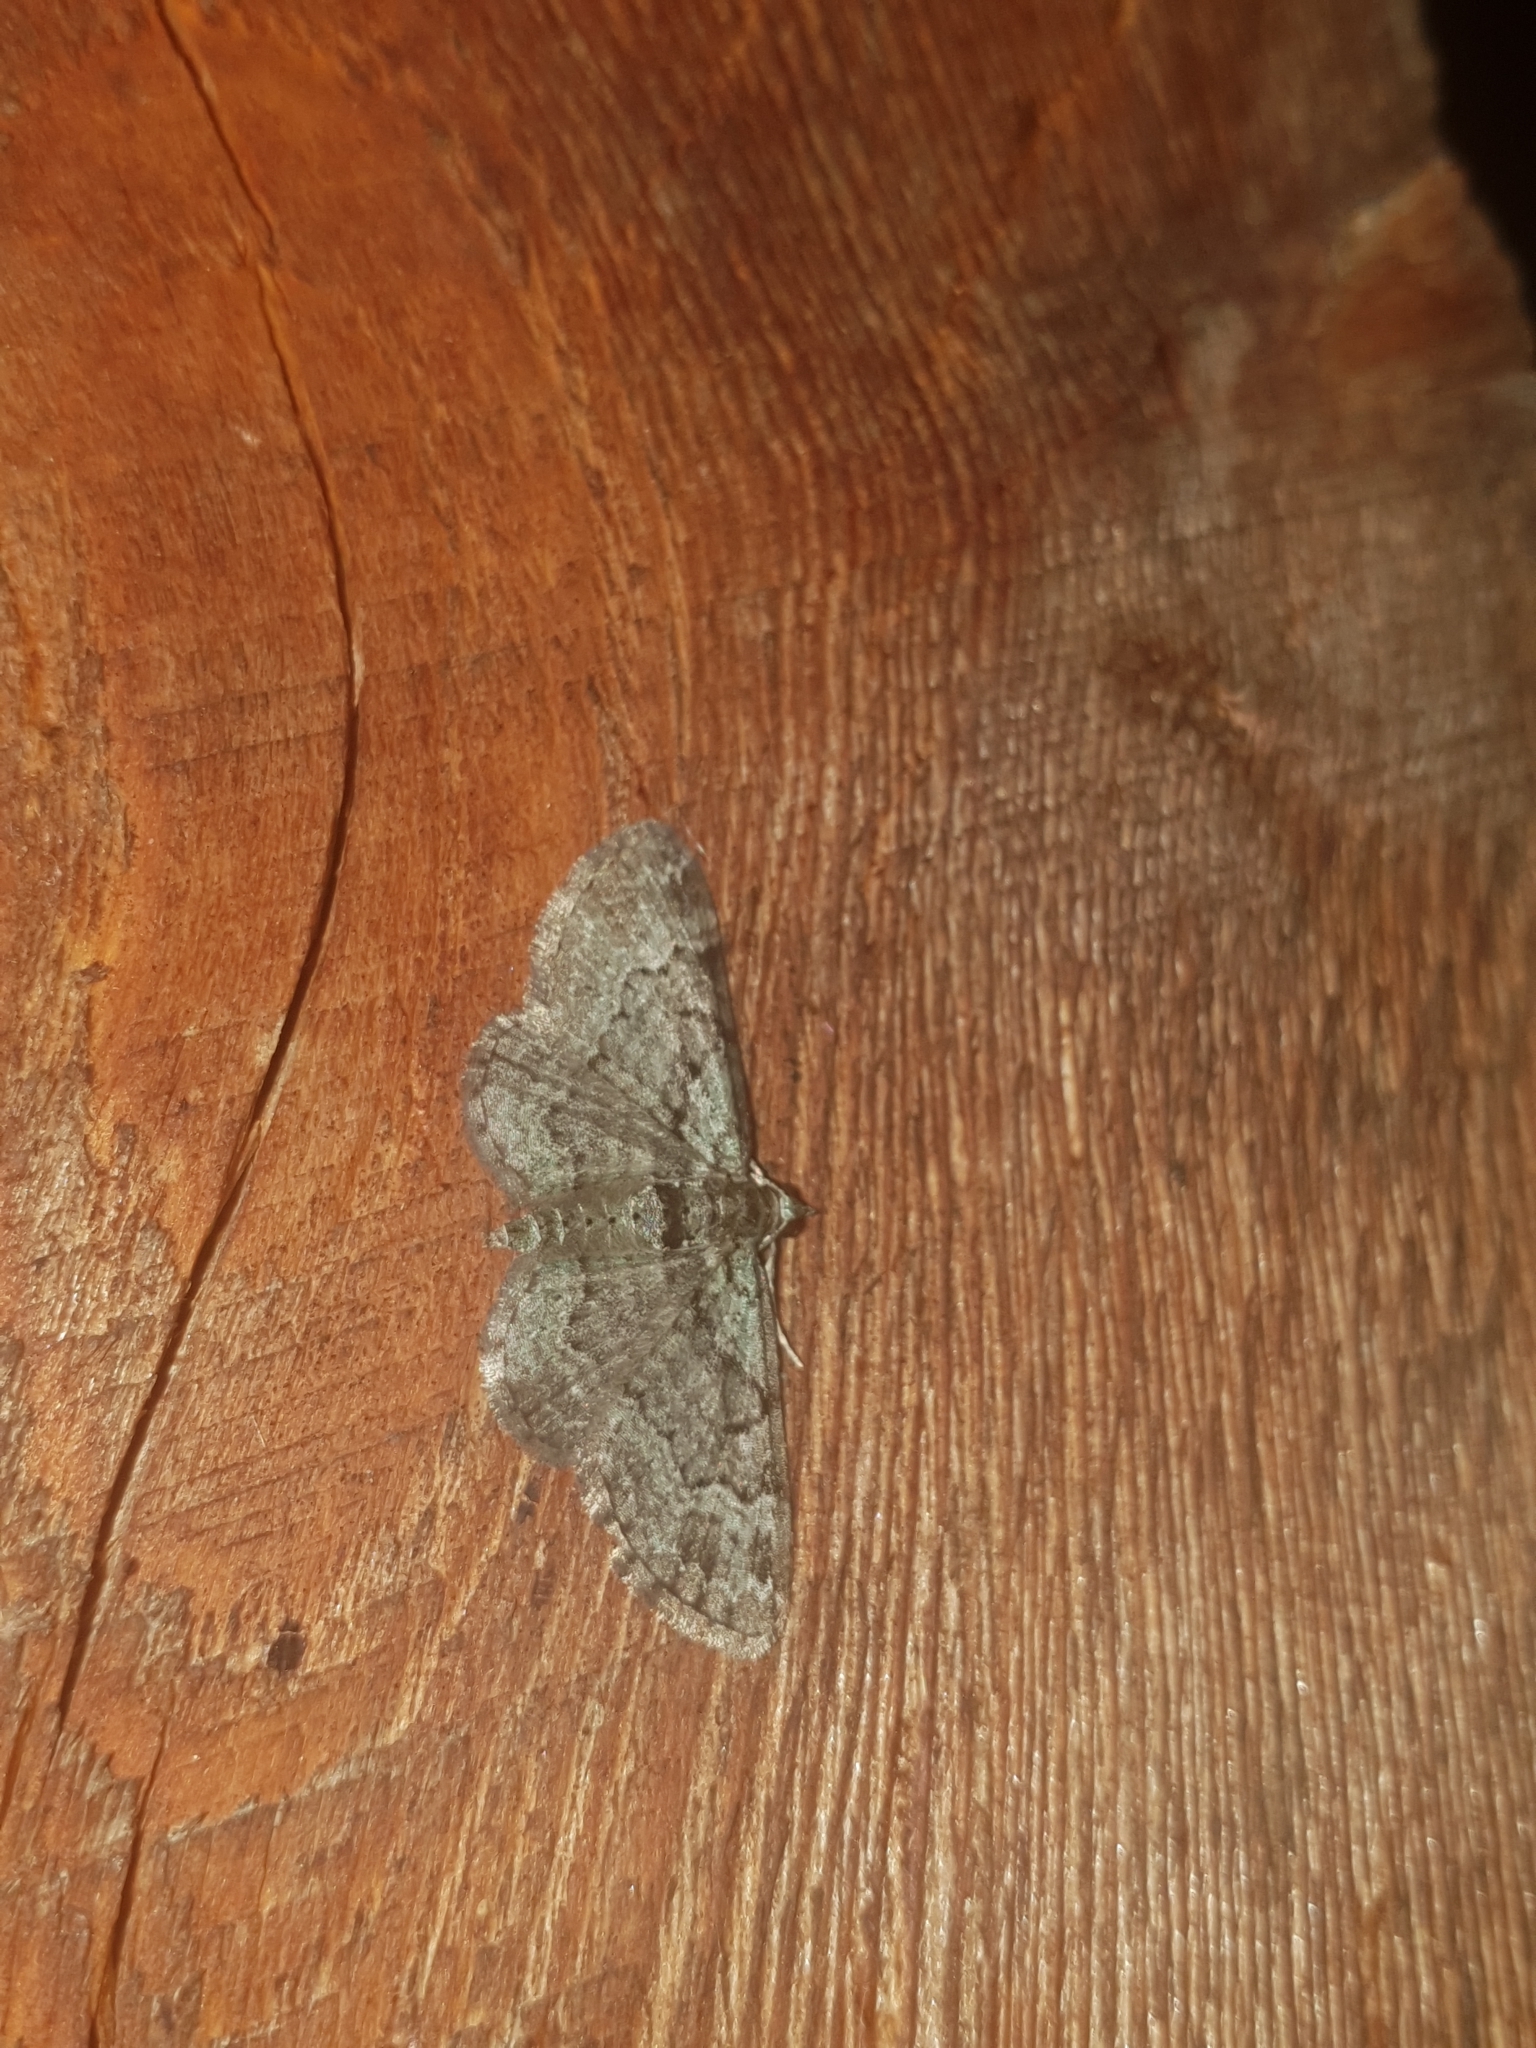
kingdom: Animalia
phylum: Arthropoda
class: Insecta
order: Lepidoptera
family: Geometridae
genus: Pasiphila
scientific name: Pasiphila rectangulata
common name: Green pug
